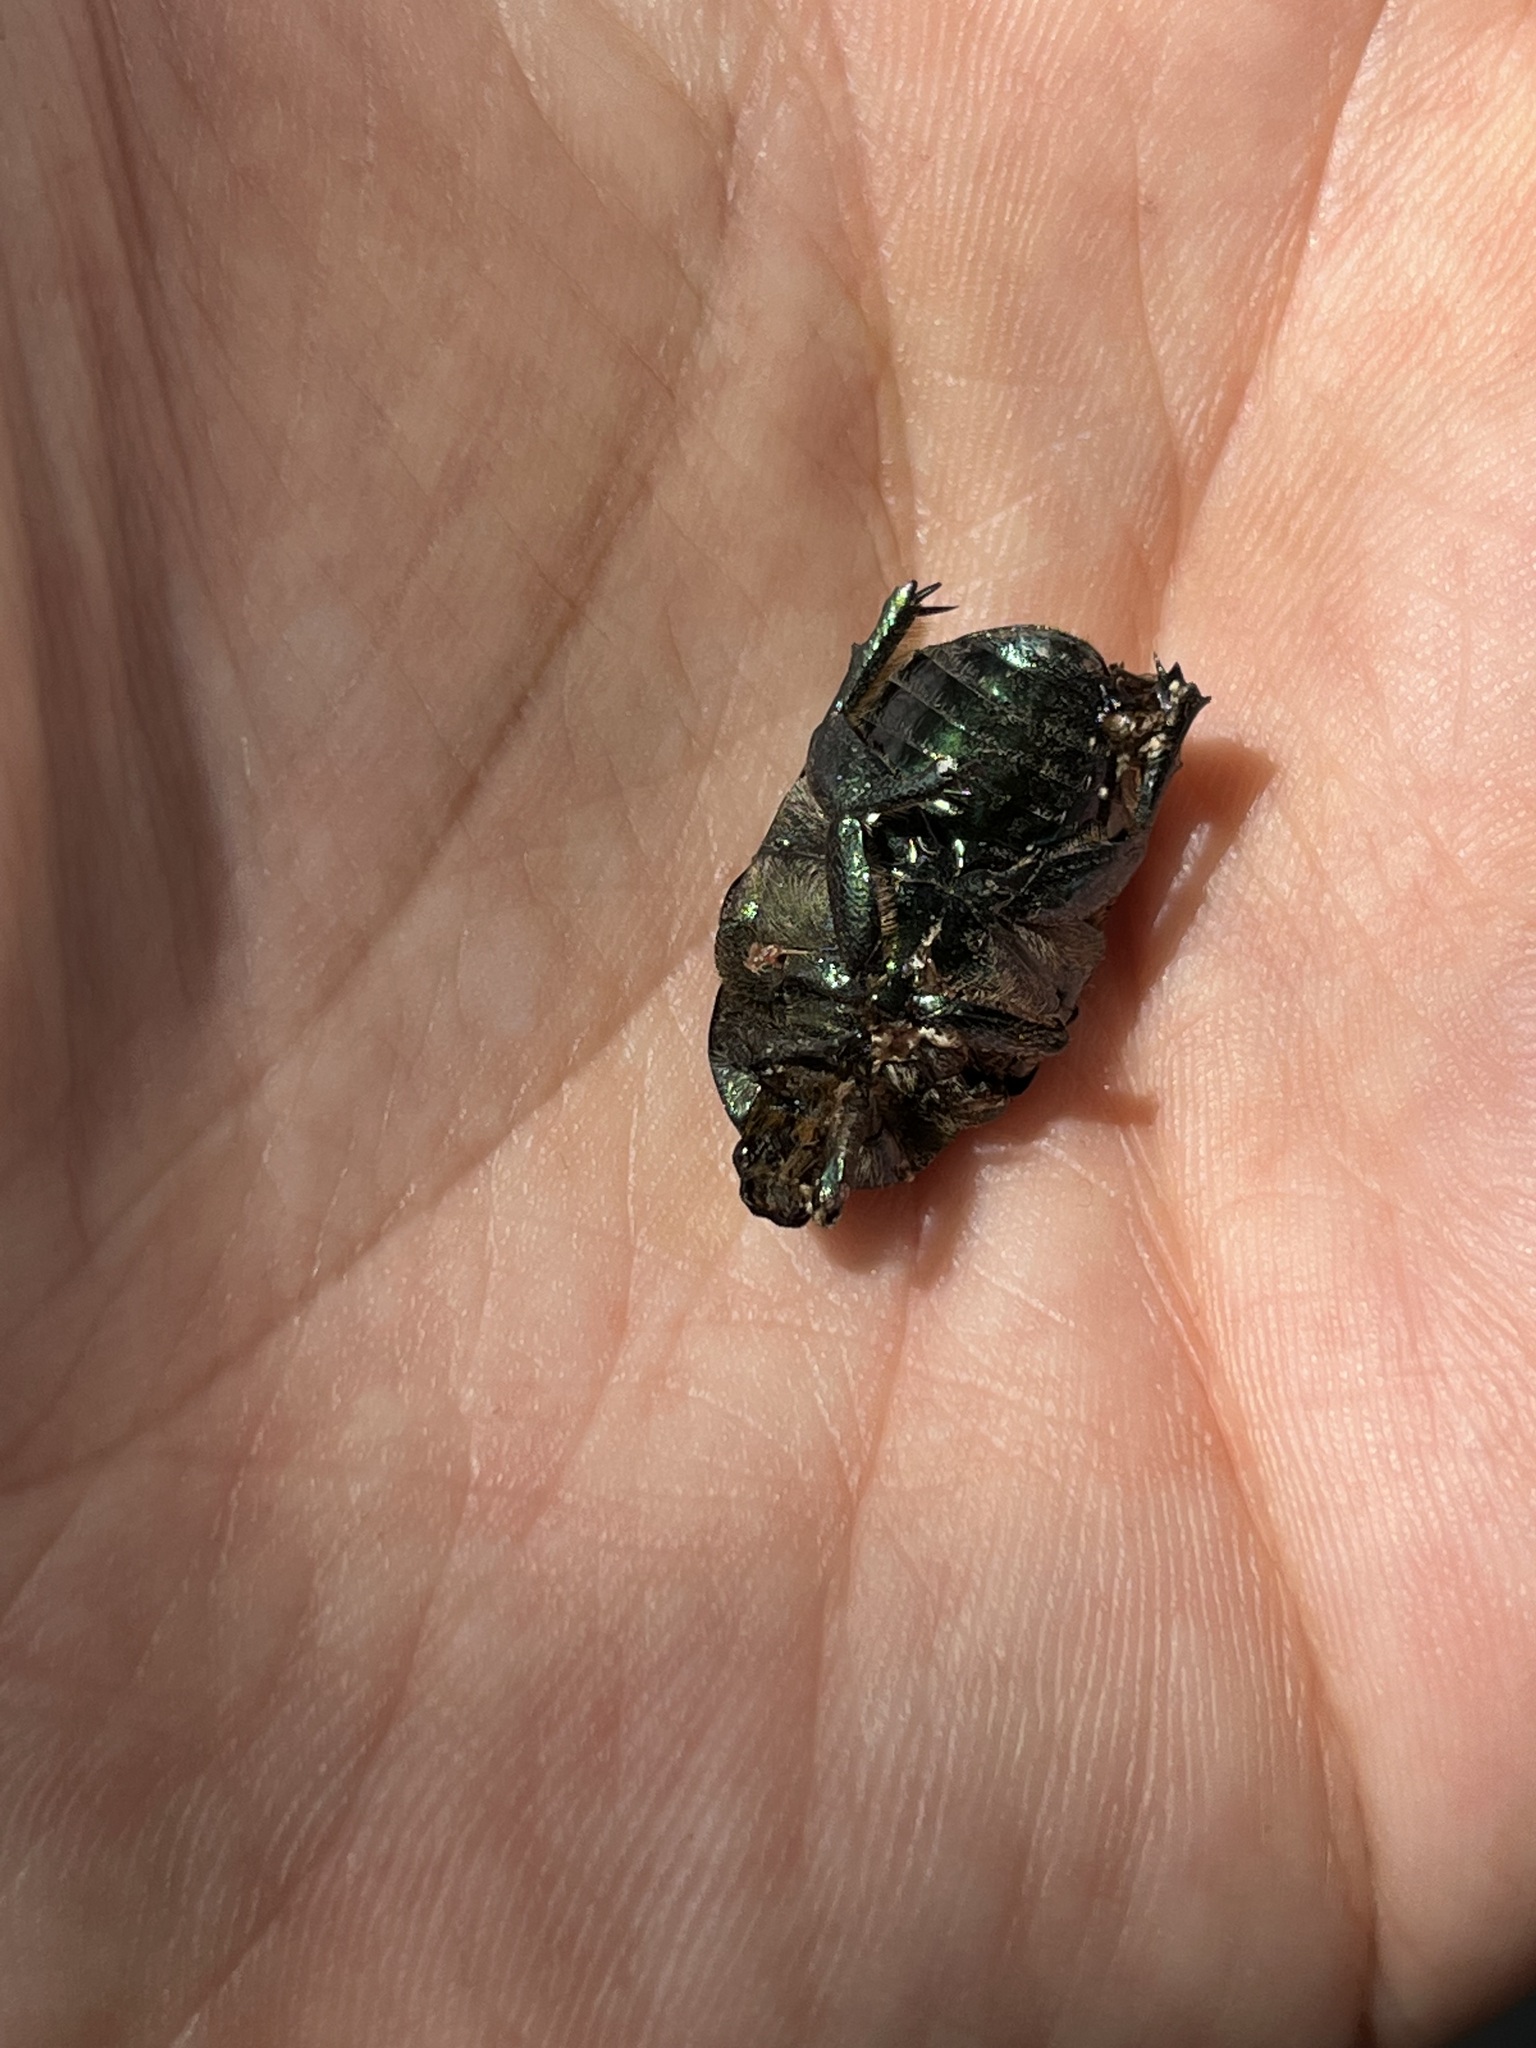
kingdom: Animalia
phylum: Arthropoda
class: Insecta
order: Coleoptera
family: Scarabaeidae
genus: Protaetia
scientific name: Protaetia angustata
